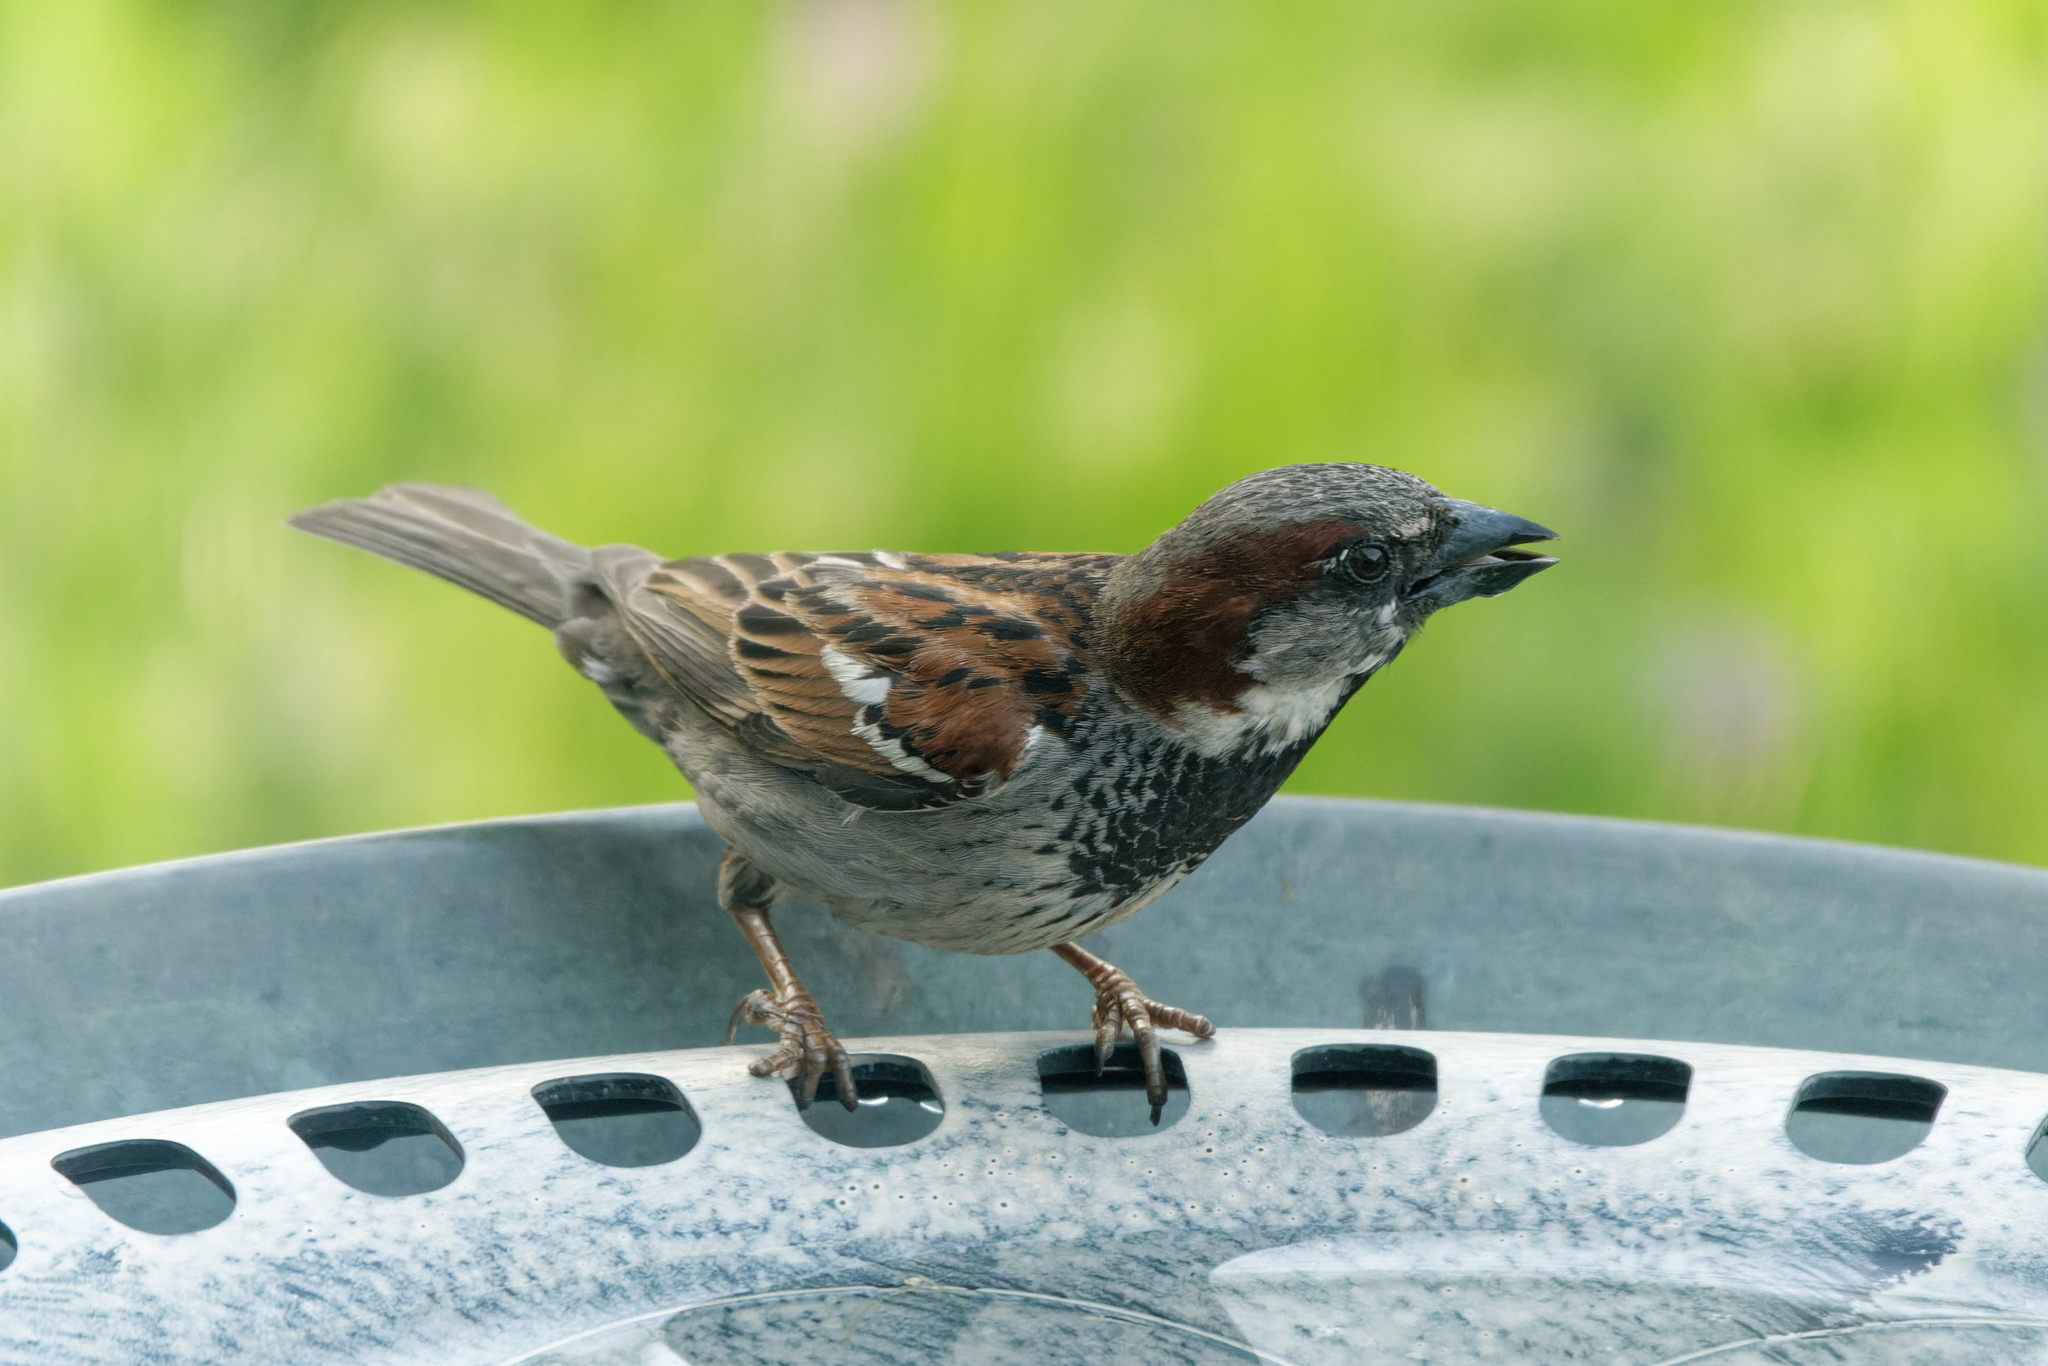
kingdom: Animalia
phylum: Chordata
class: Aves
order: Passeriformes
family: Passeridae
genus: Passer
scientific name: Passer domesticus
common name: House sparrow
